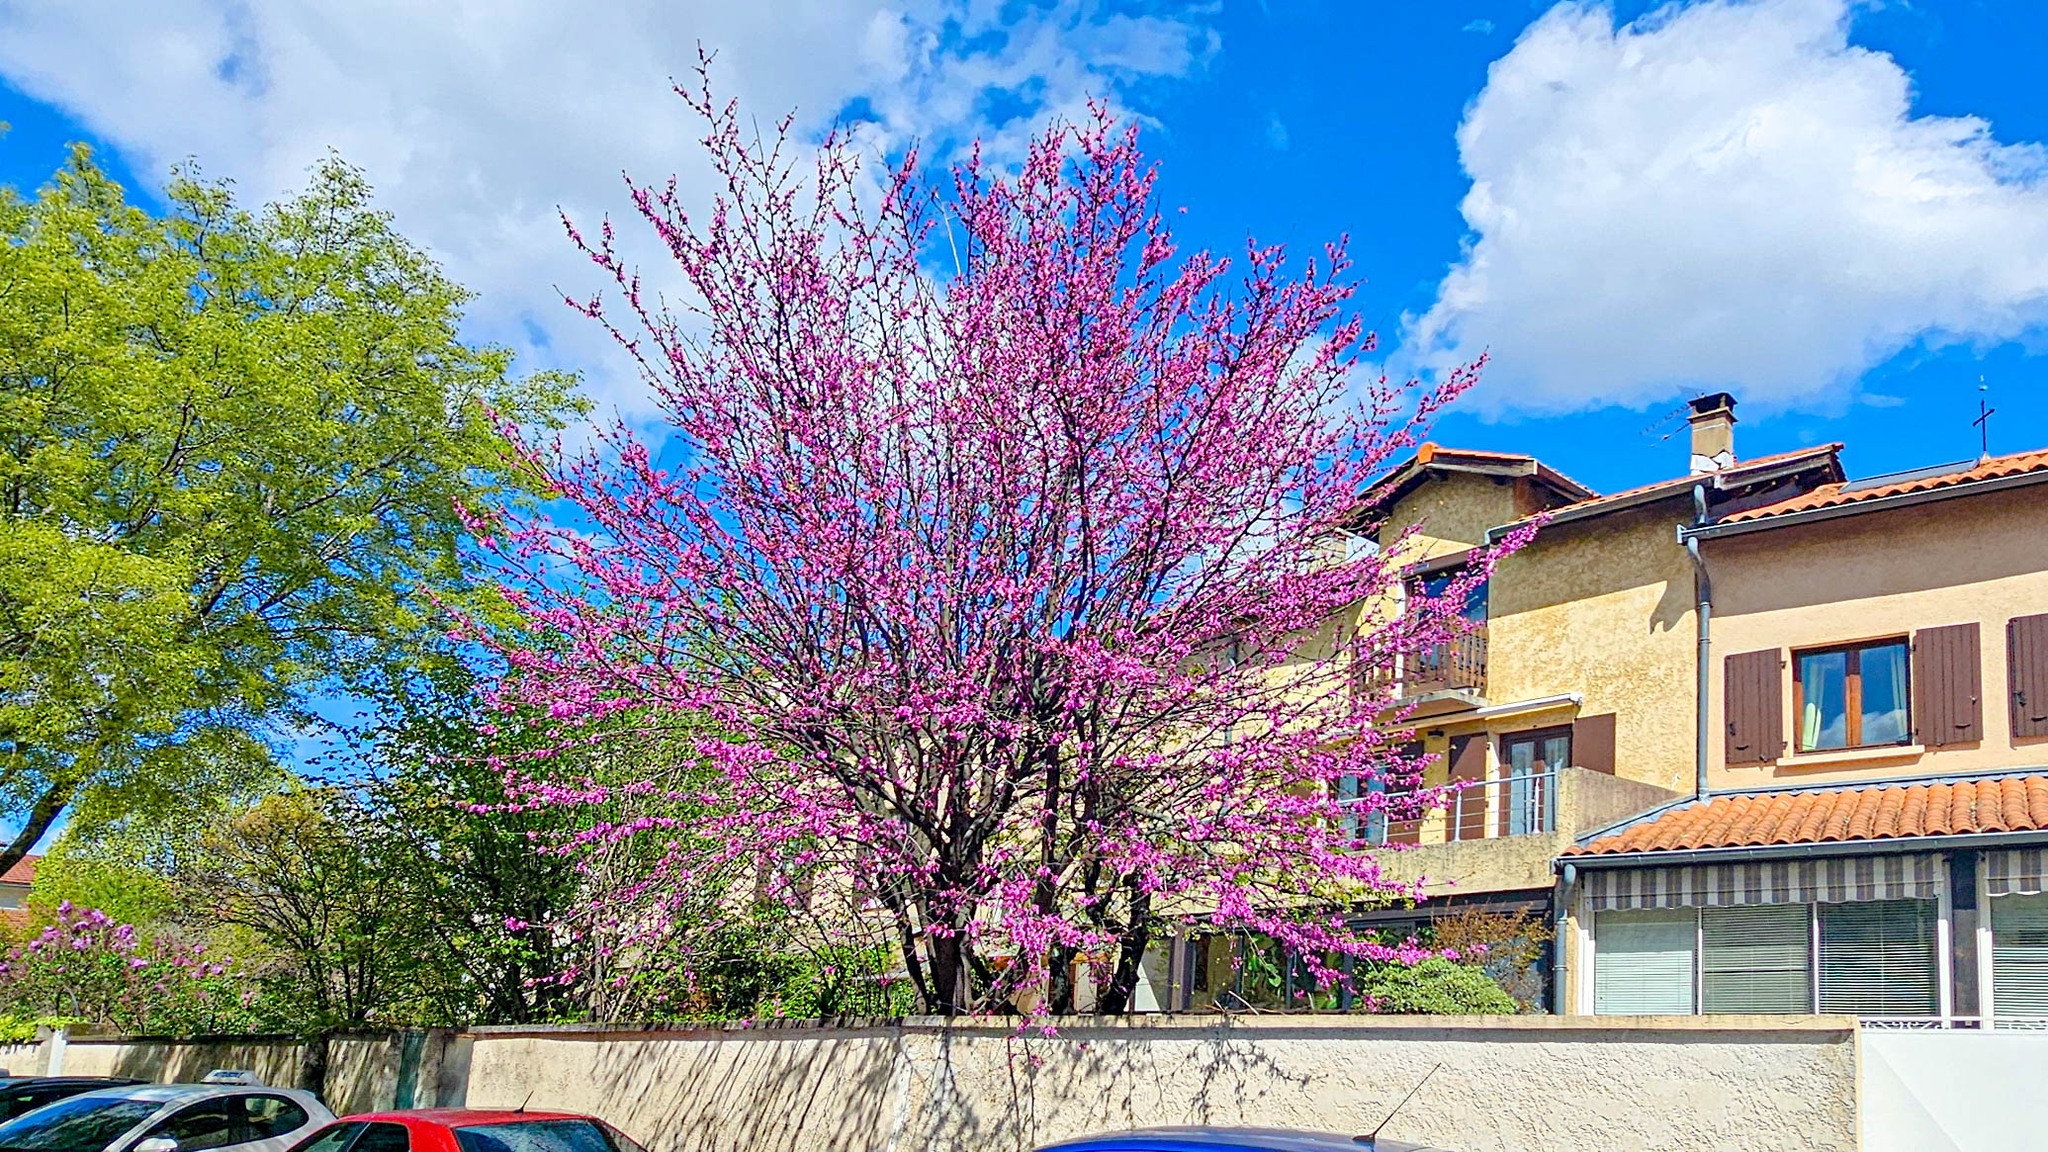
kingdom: Plantae
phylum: Tracheophyta
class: Magnoliopsida
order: Fabales
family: Fabaceae
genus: Cercis
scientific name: Cercis siliquastrum
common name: Judas tree
